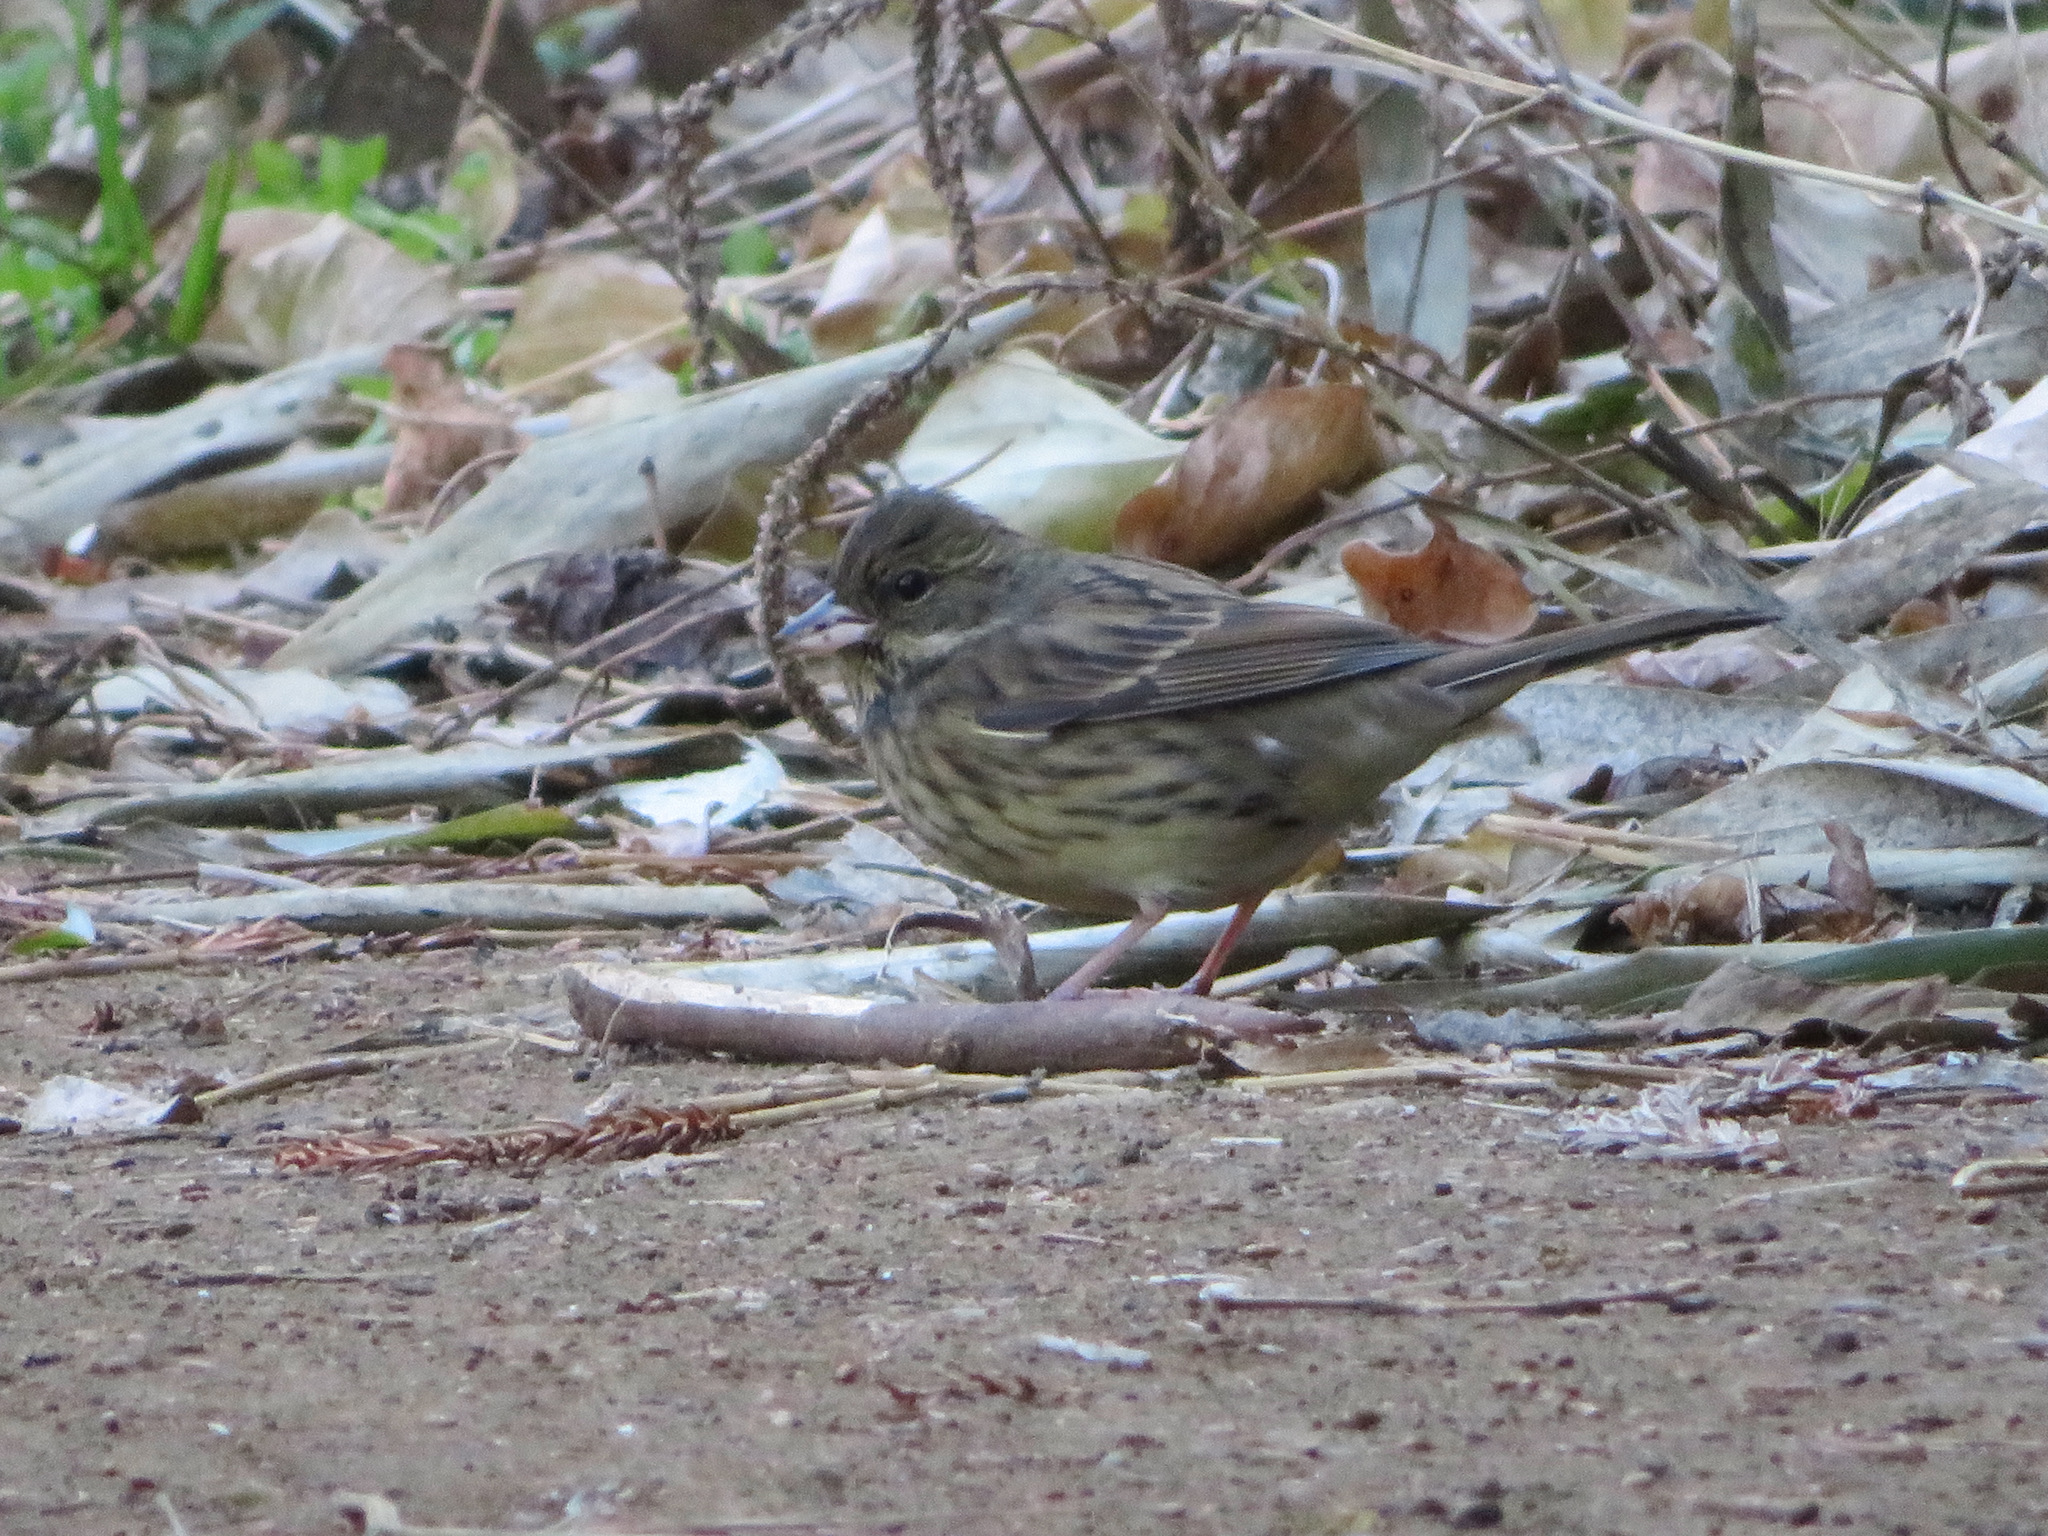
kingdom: Animalia
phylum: Chordata
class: Aves
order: Passeriformes
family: Emberizidae
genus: Emberiza
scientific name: Emberiza personata
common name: Masked bunting
